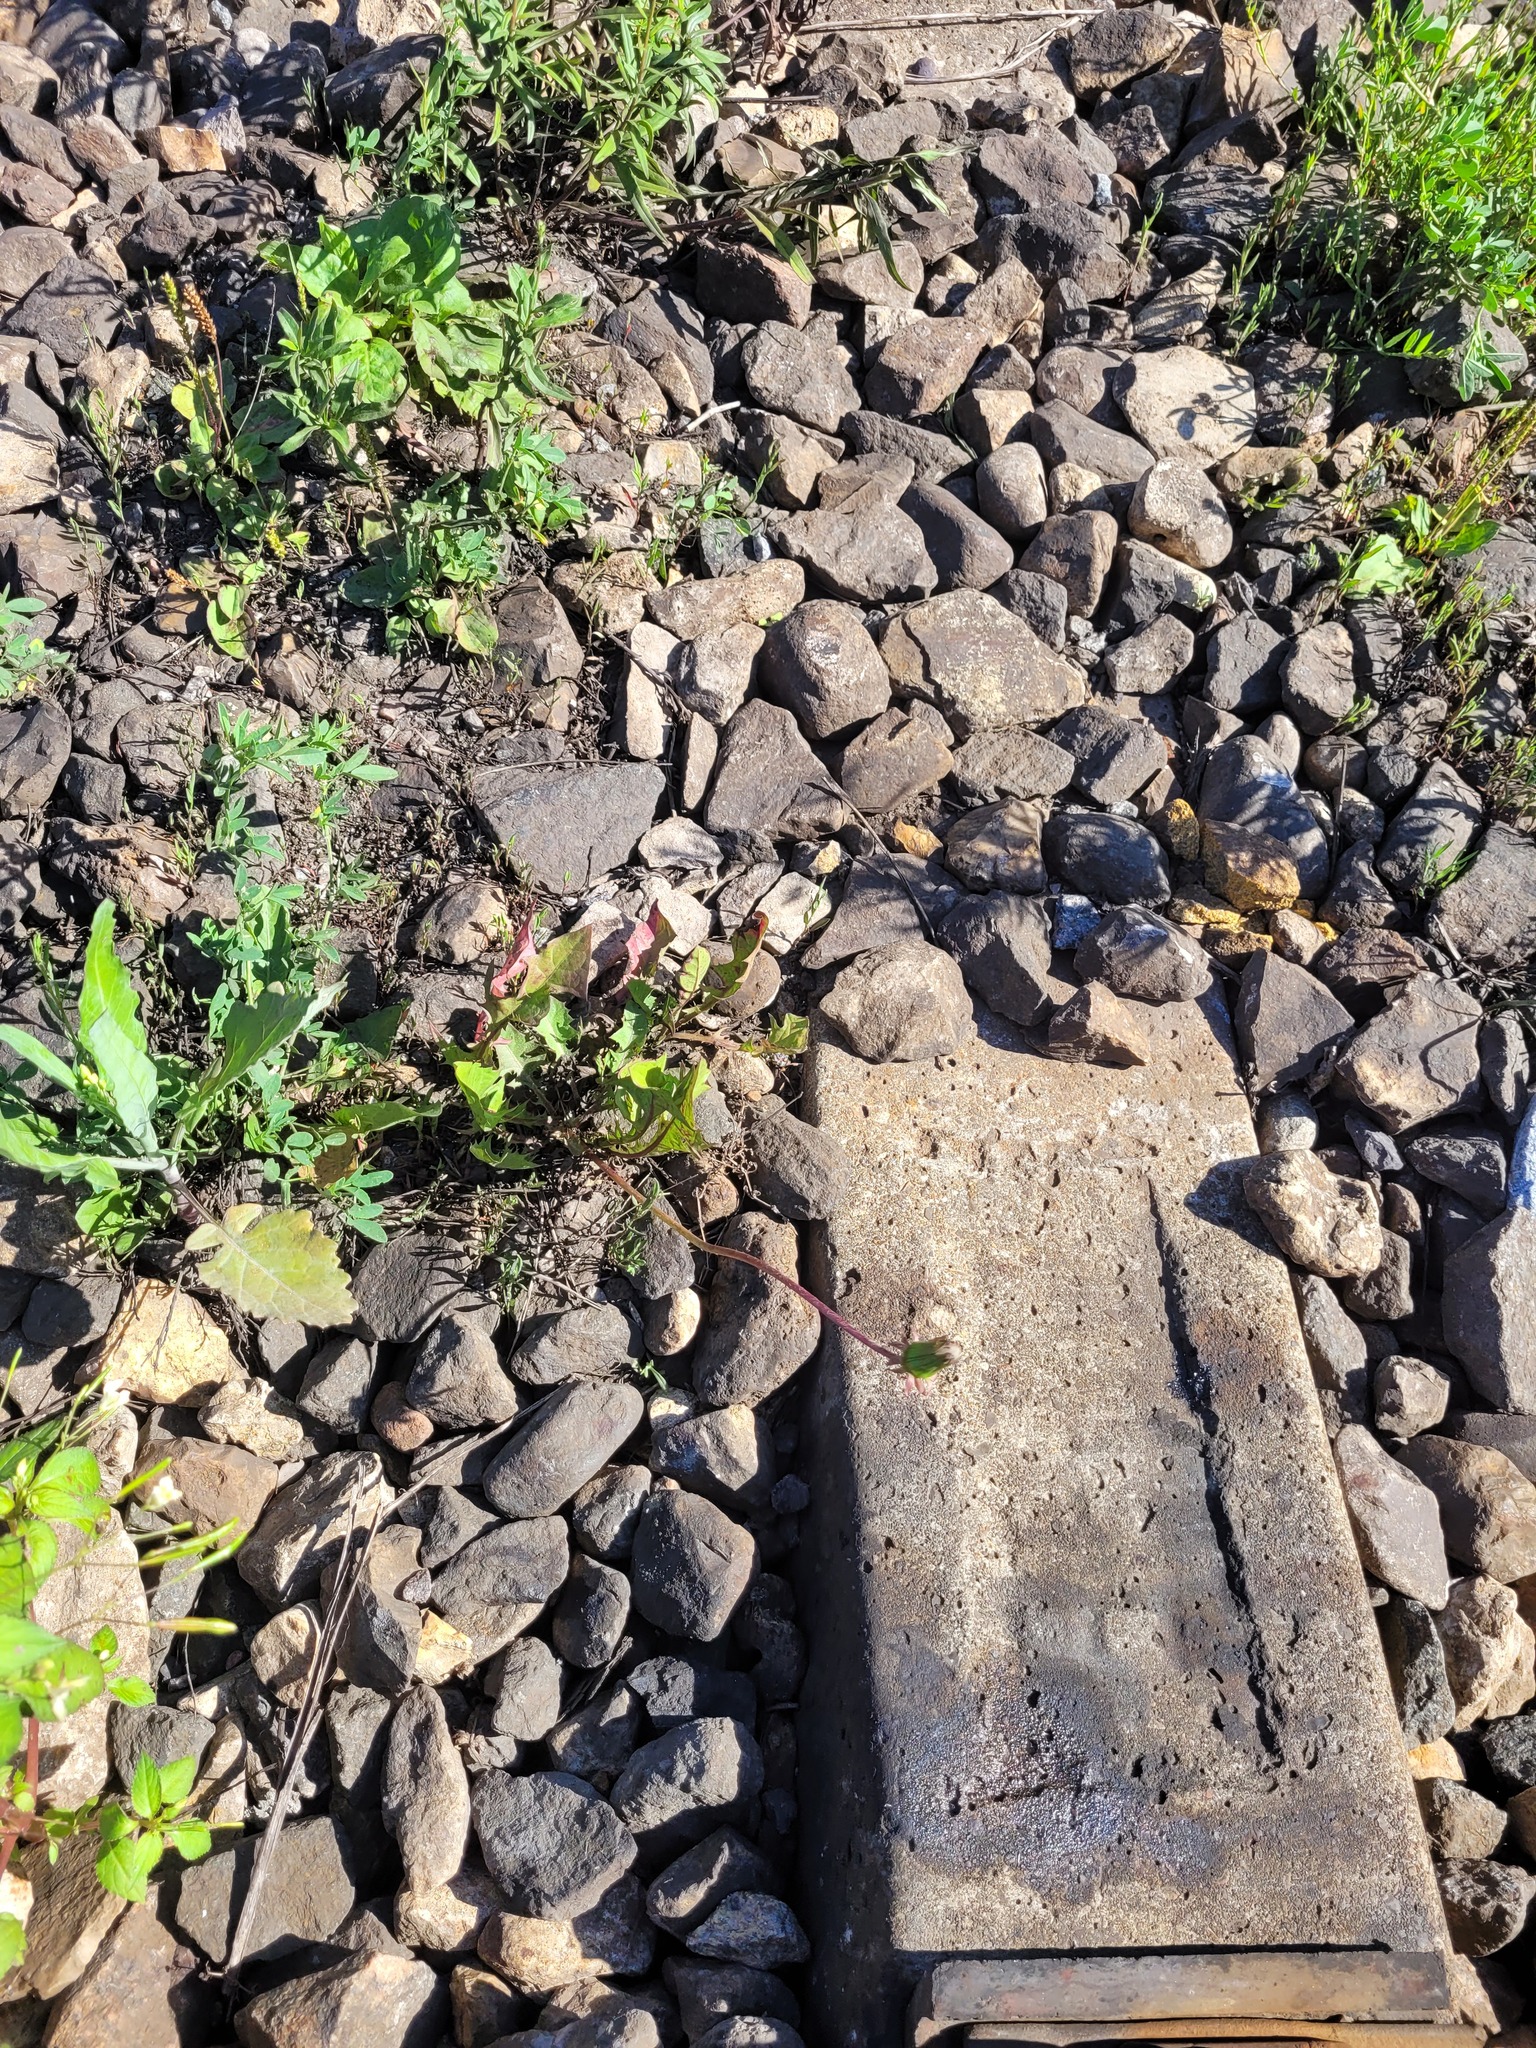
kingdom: Plantae
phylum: Tracheophyta
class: Magnoliopsida
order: Asterales
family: Asteraceae
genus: Taraxacum
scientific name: Taraxacum officinale
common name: Common dandelion
